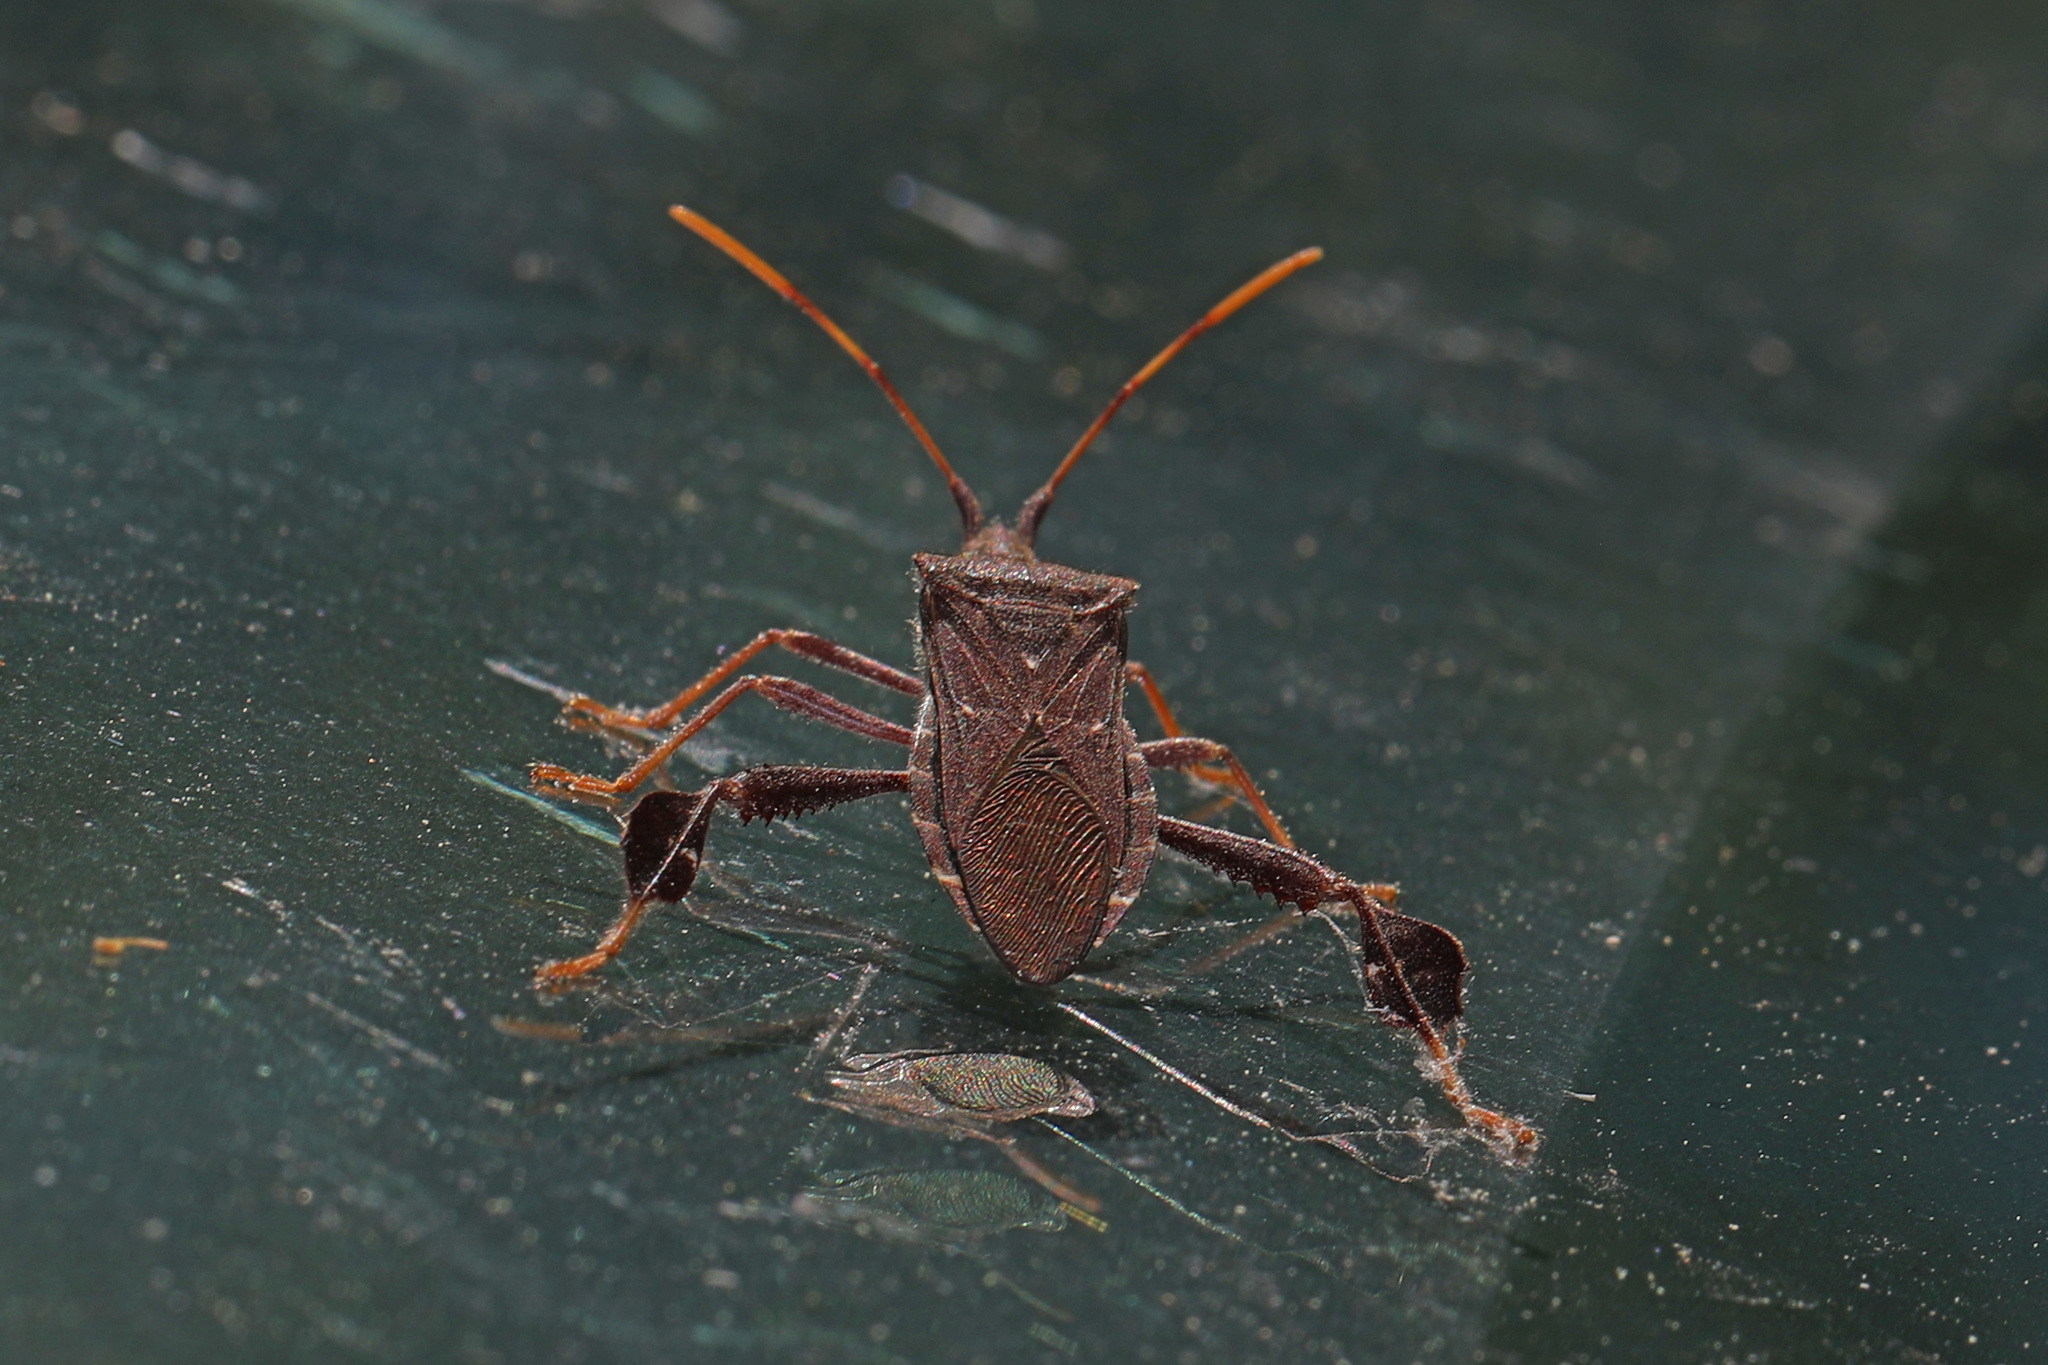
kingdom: Animalia
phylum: Arthropoda
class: Insecta
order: Hemiptera
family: Coreidae
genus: Leptoglossus
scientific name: Leptoglossus oppositus
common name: Northern leaf-footed bug
